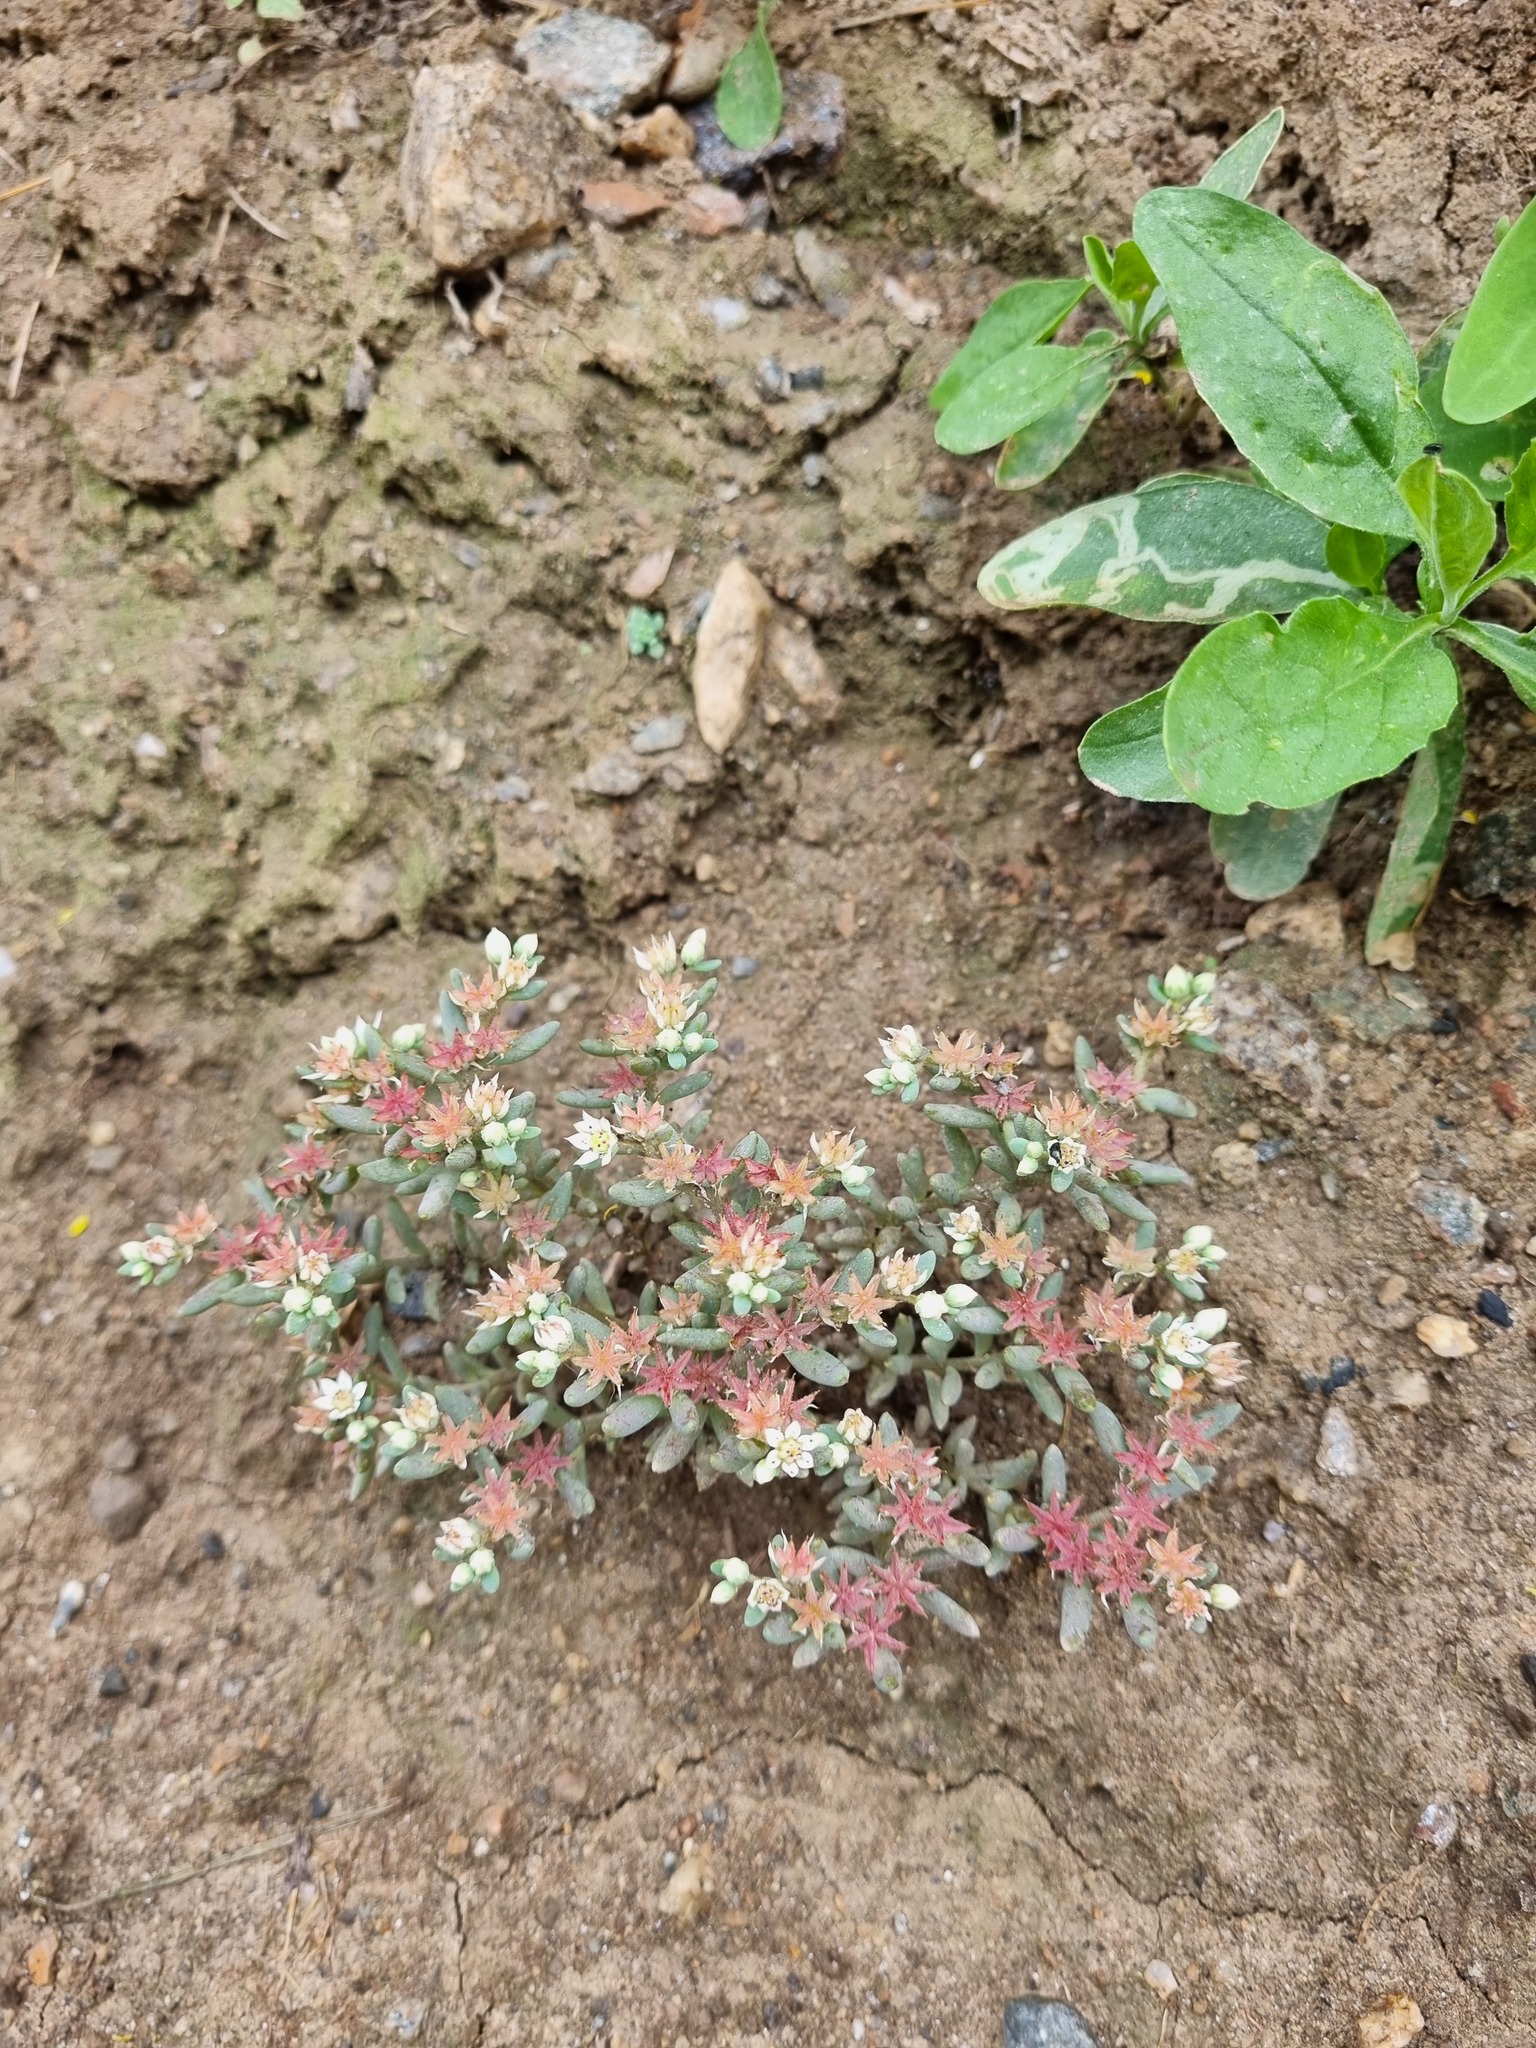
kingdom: Plantae
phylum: Tracheophyta
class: Magnoliopsida
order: Saxifragales
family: Crassulaceae
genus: Sedum
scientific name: Sedum hispanicum
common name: Spanish stonecrop
